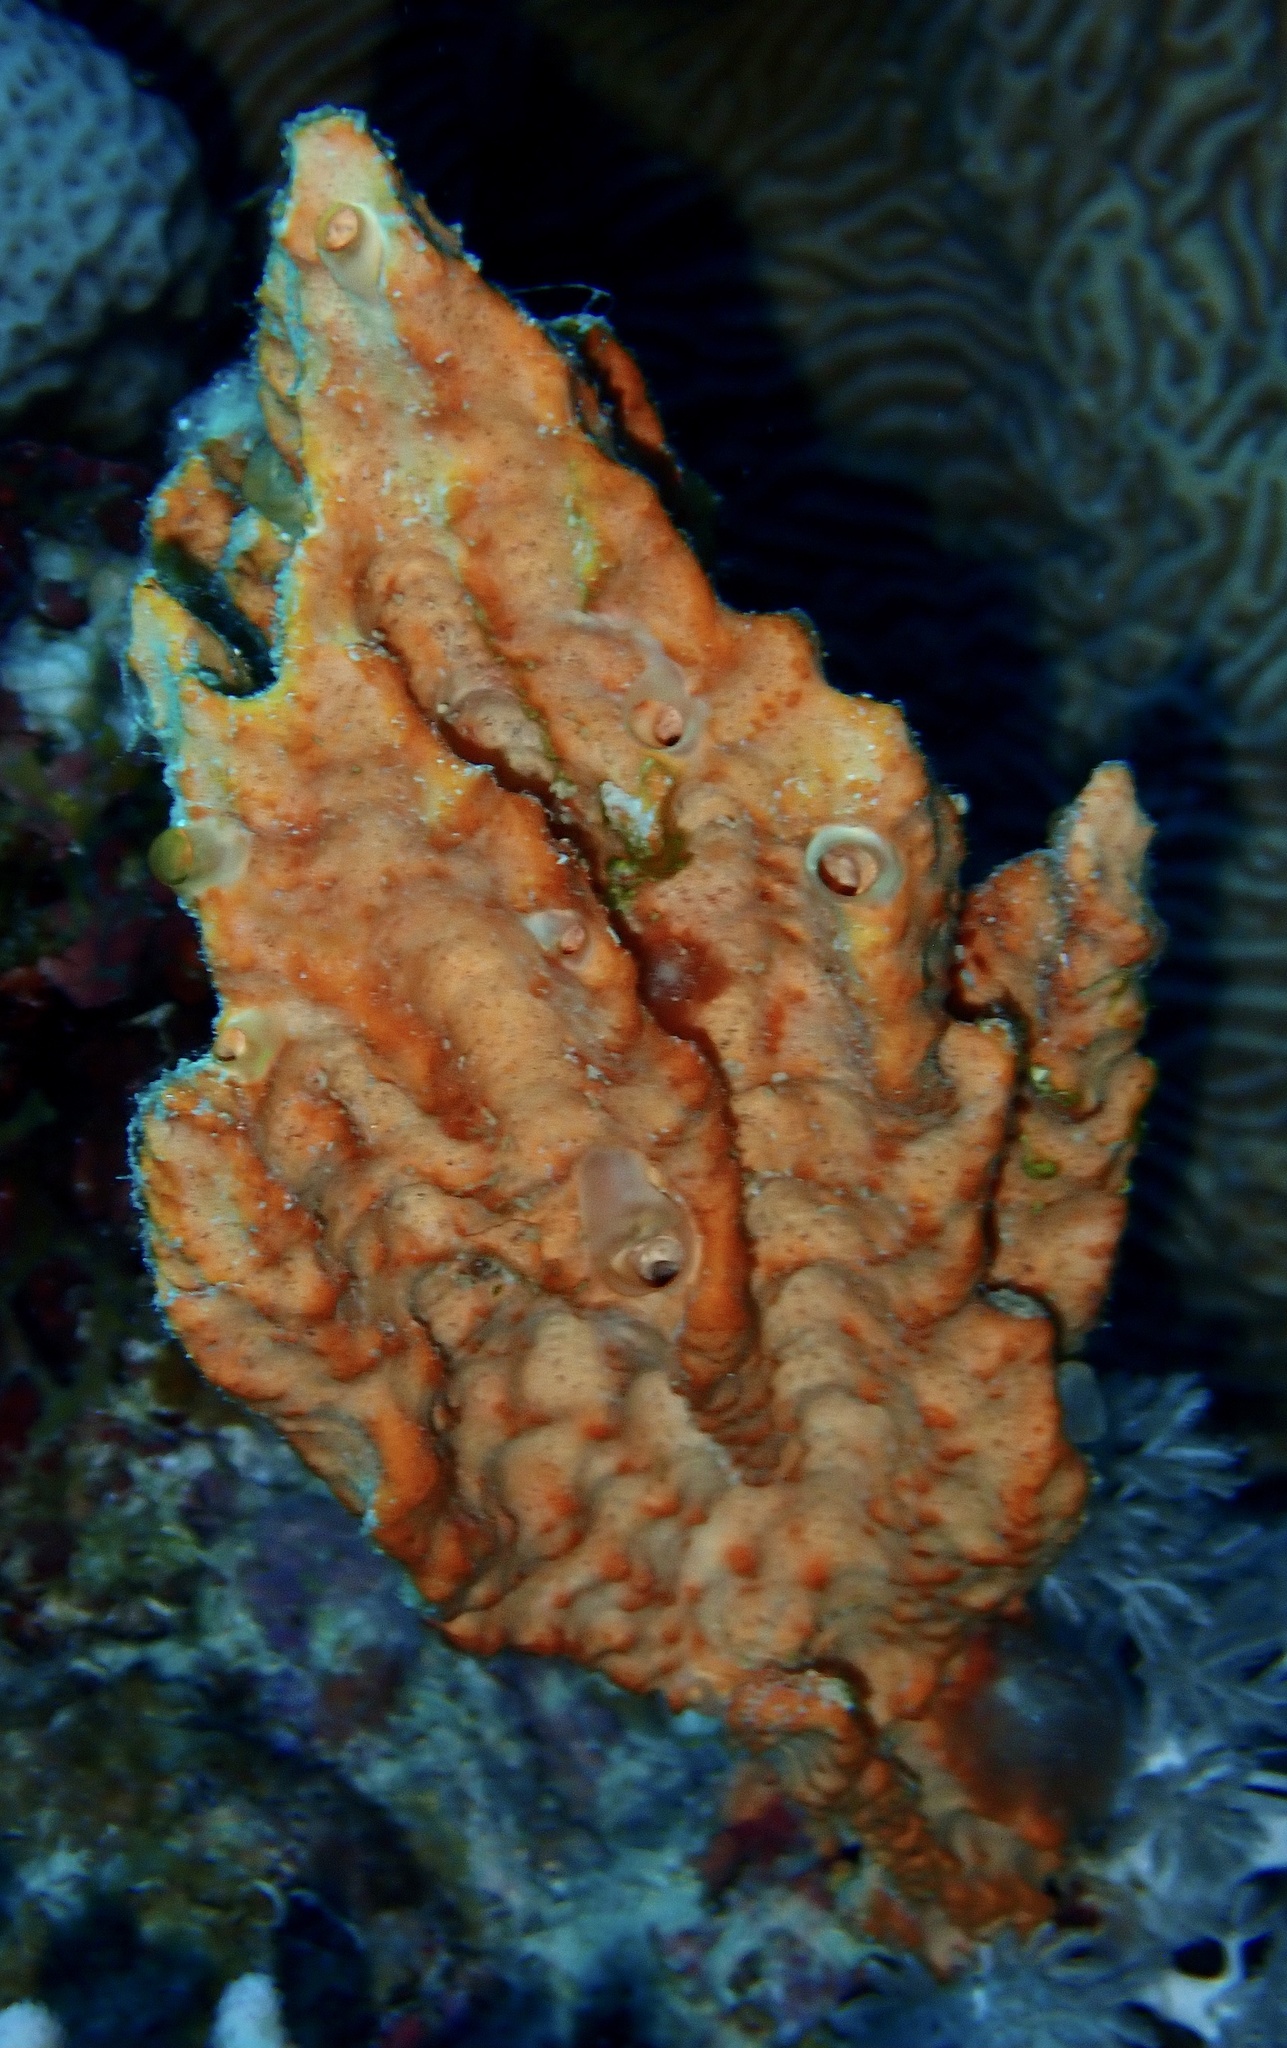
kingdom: Animalia
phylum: Porifera
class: Demospongiae
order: Scopalinida
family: Scopalinidae
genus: Stylissa
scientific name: Stylissa carteri
